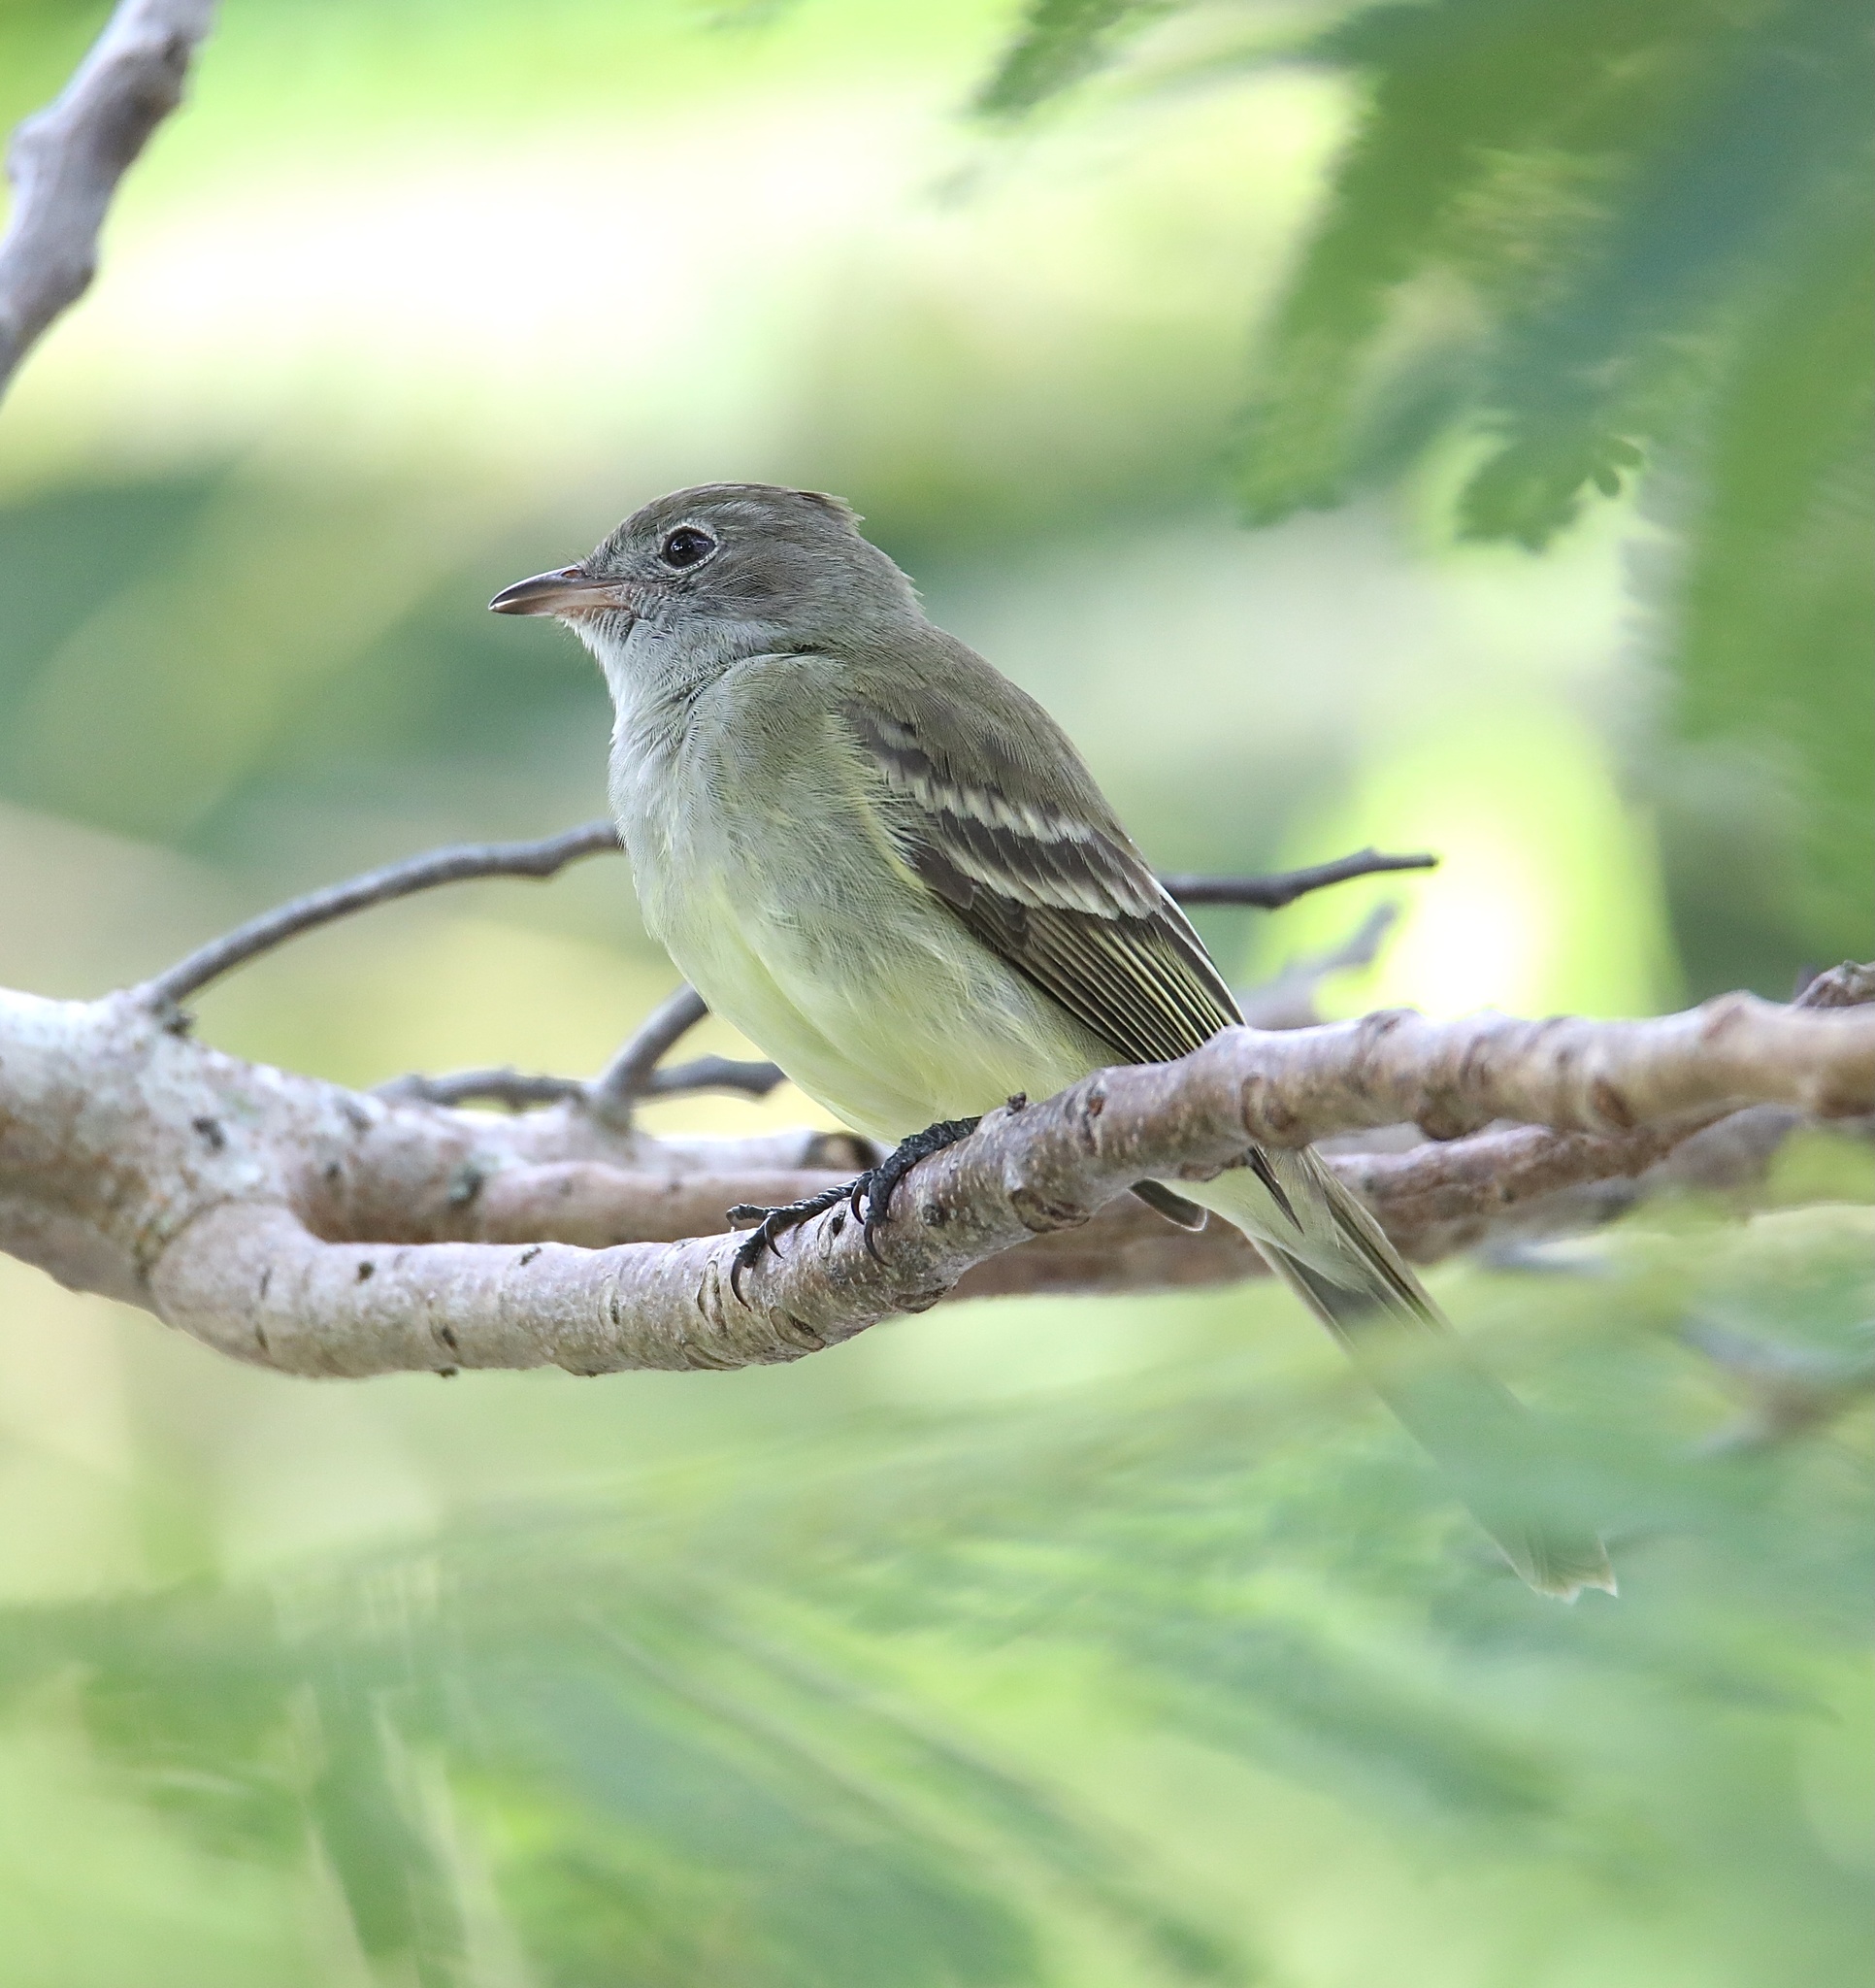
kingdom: Animalia
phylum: Chordata
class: Aves
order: Passeriformes
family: Tyrannidae
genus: Elaenia
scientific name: Elaenia flavogaster
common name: Yellow-bellied elaenia
